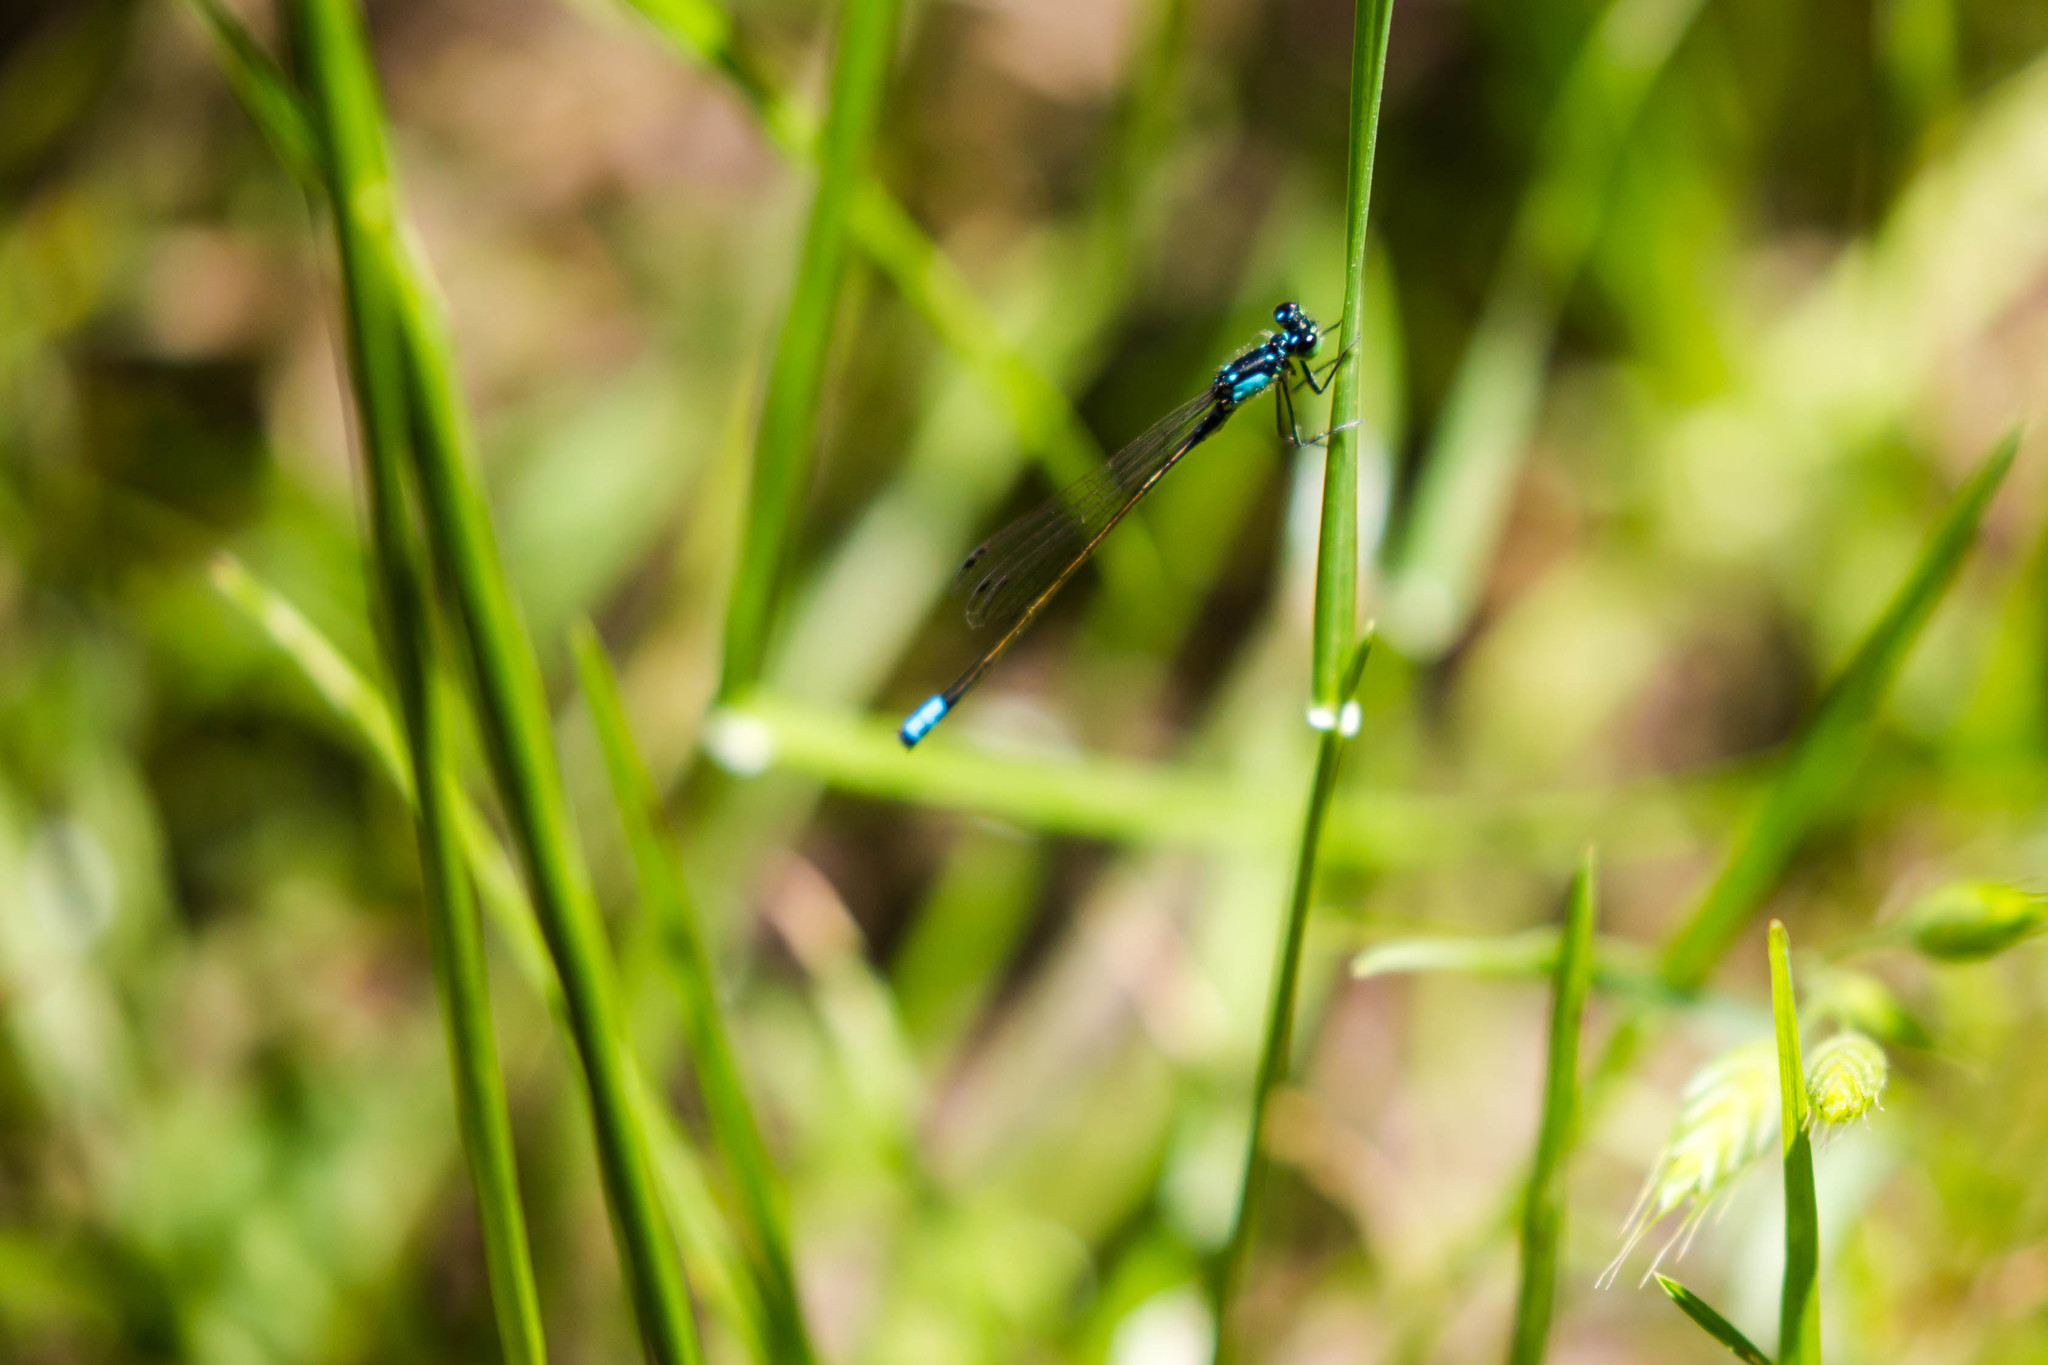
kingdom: Animalia
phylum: Arthropoda
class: Insecta
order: Odonata
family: Coenagrionidae
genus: Ischnura
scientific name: Ischnura cervula
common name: Pacific forktail
